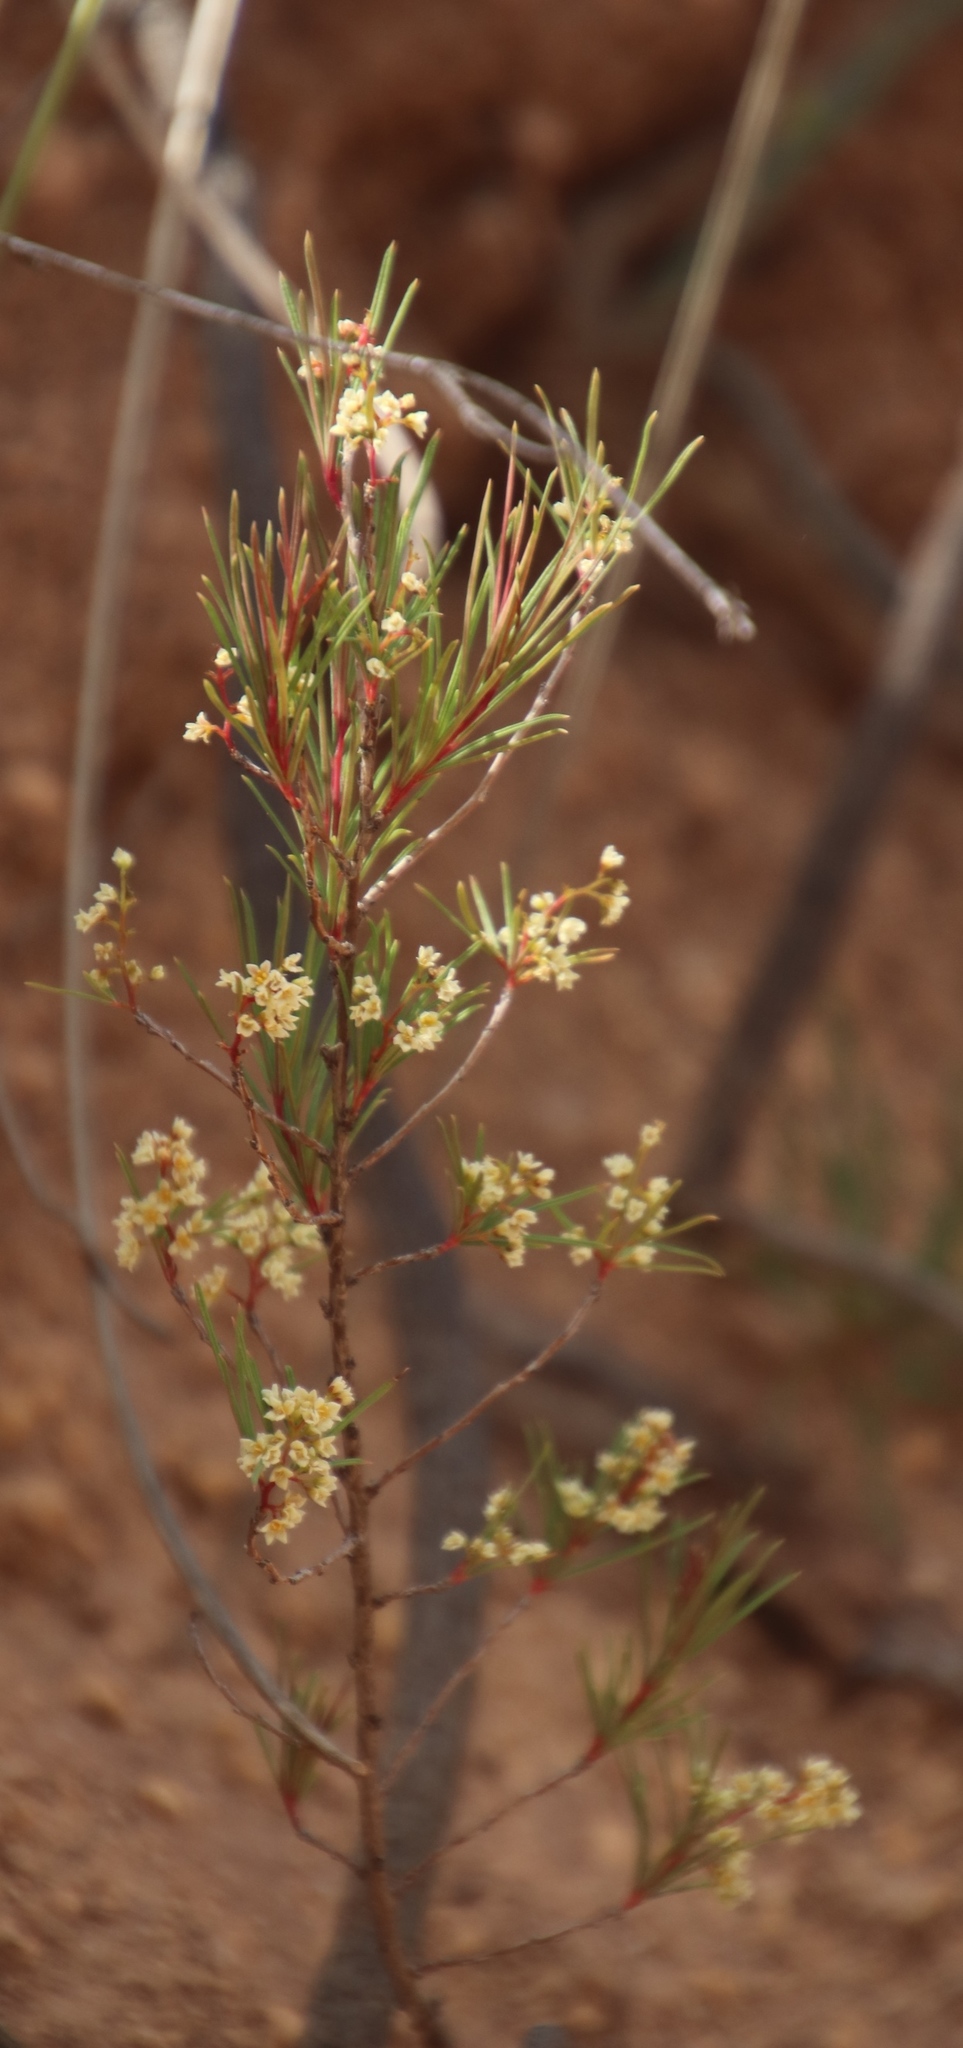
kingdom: Plantae
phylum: Tracheophyta
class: Magnoliopsida
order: Sapindales
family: Anacardiaceae
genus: Searsia
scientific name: Searsia rosmarinifolia
